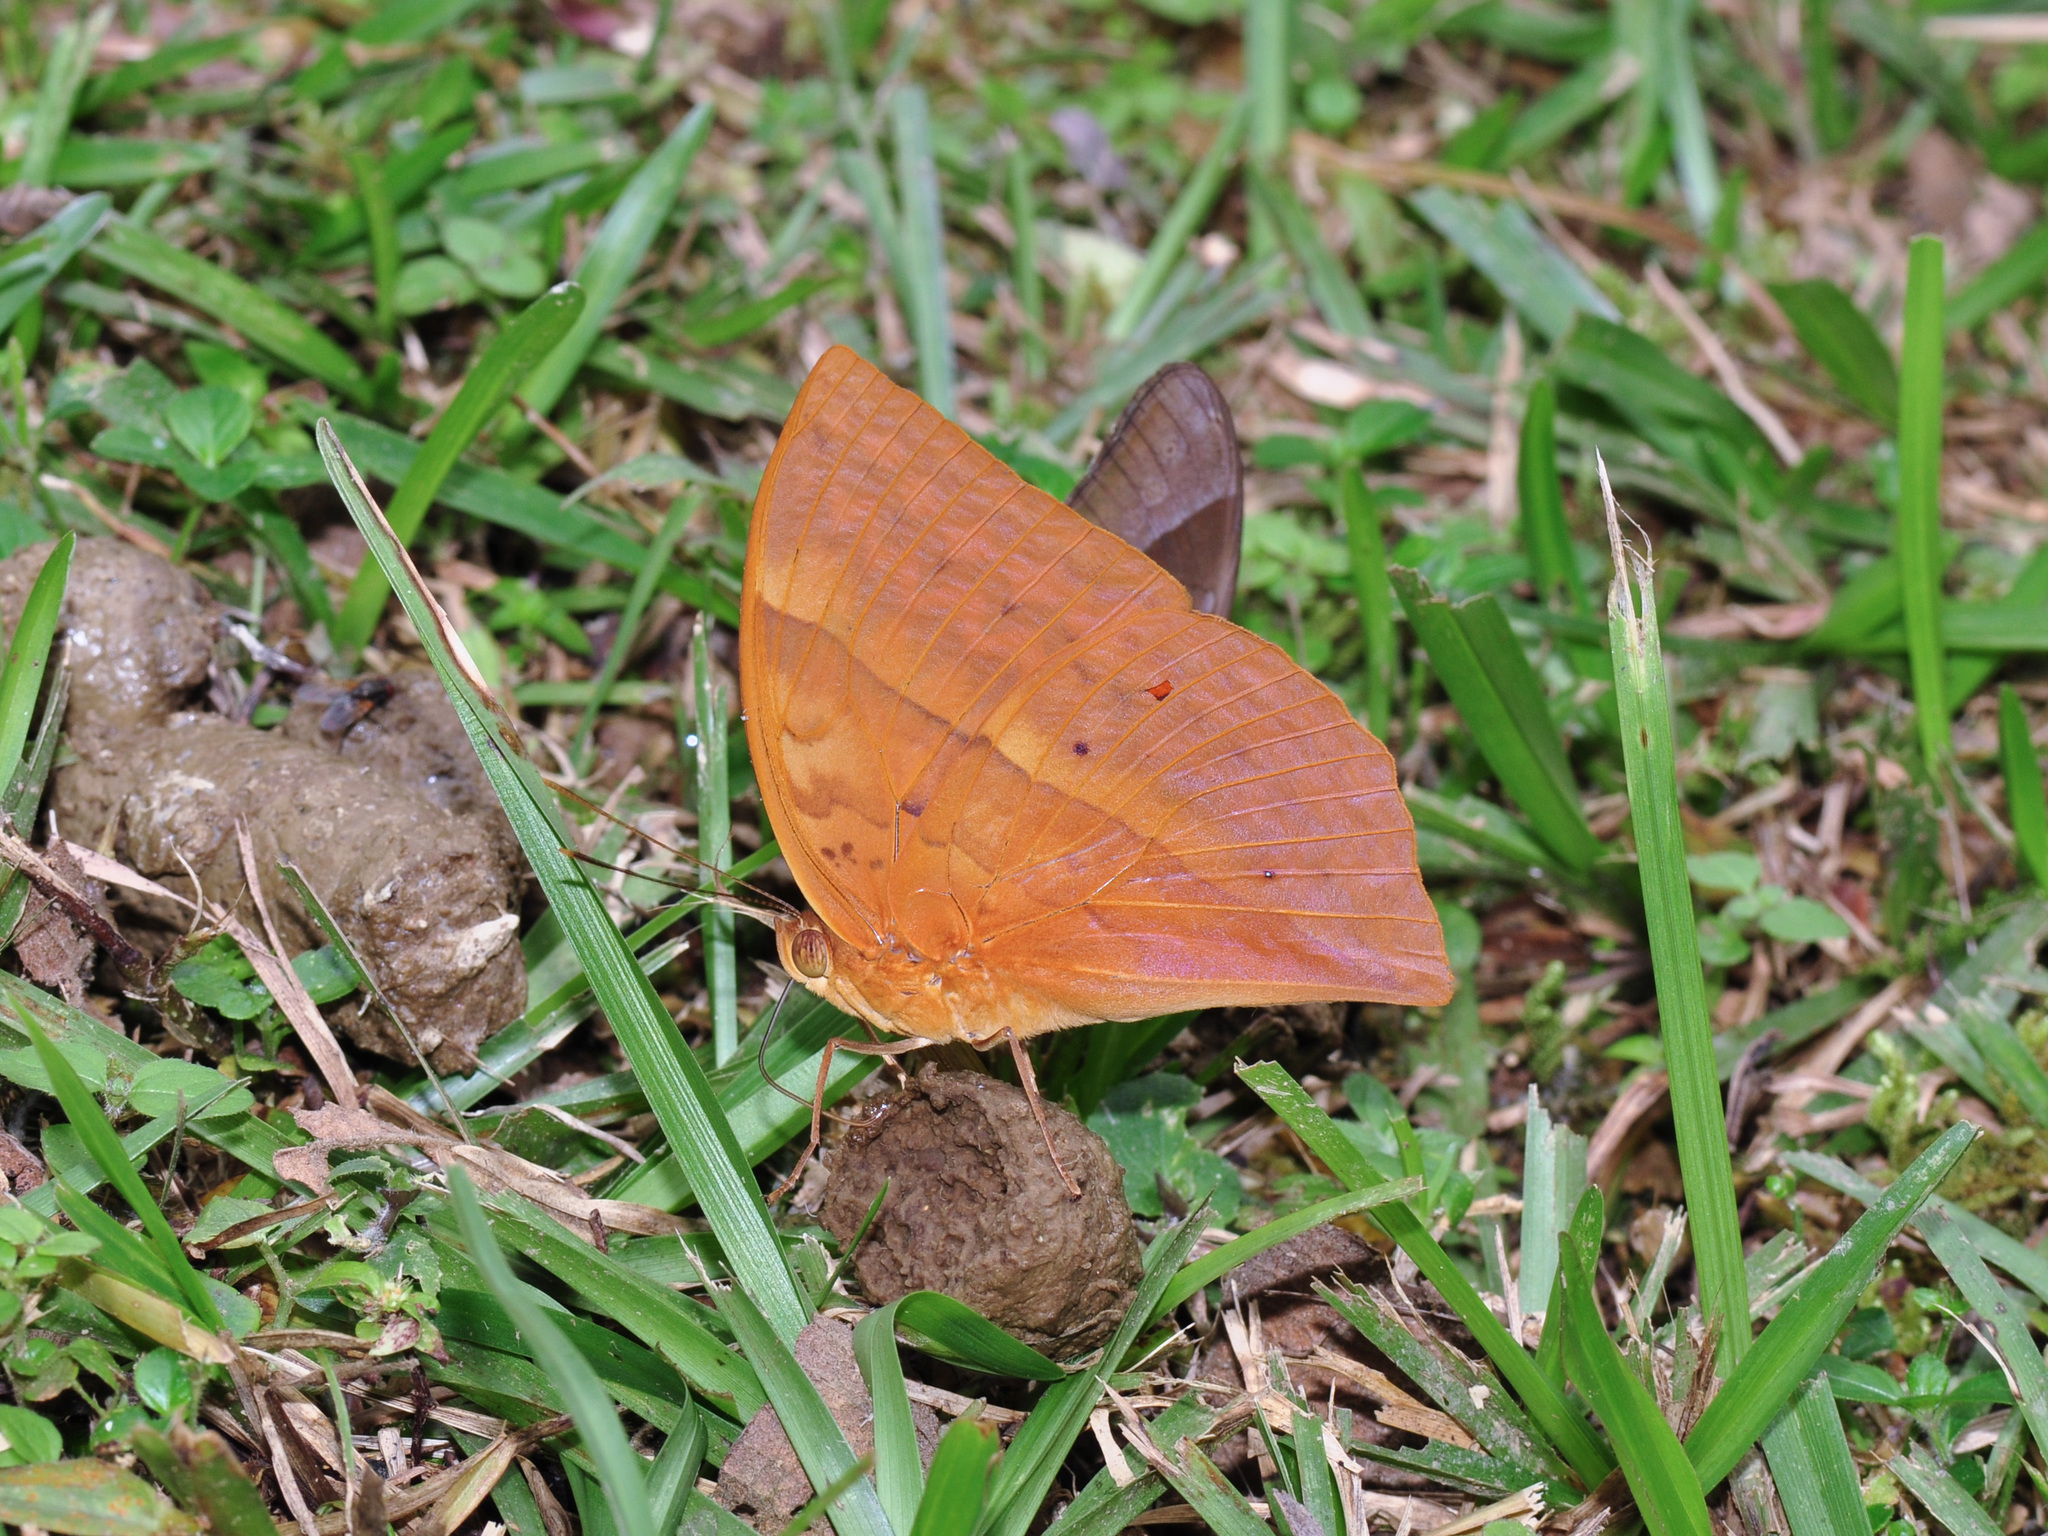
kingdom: Animalia
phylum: Arthropoda
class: Insecta
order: Lepidoptera
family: Nymphalidae
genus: Enispe
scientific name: Enispe
